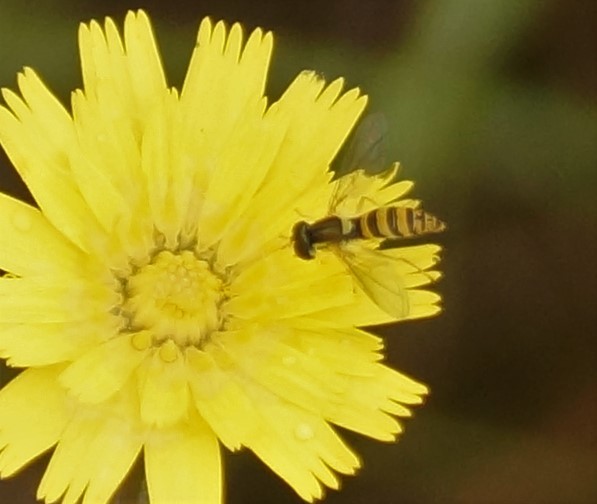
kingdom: Animalia
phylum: Arthropoda
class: Insecta
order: Diptera
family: Syrphidae
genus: Sphaerophoria
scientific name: Sphaerophoria macrogaster
